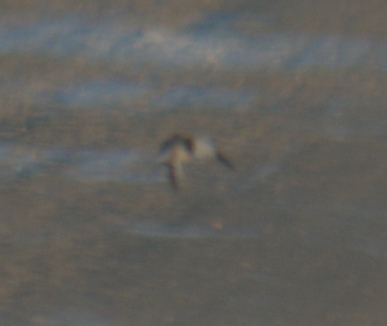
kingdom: Animalia
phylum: Chordata
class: Aves
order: Passeriformes
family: Calcariidae
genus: Plectrophenax
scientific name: Plectrophenax nivalis
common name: Snow bunting
